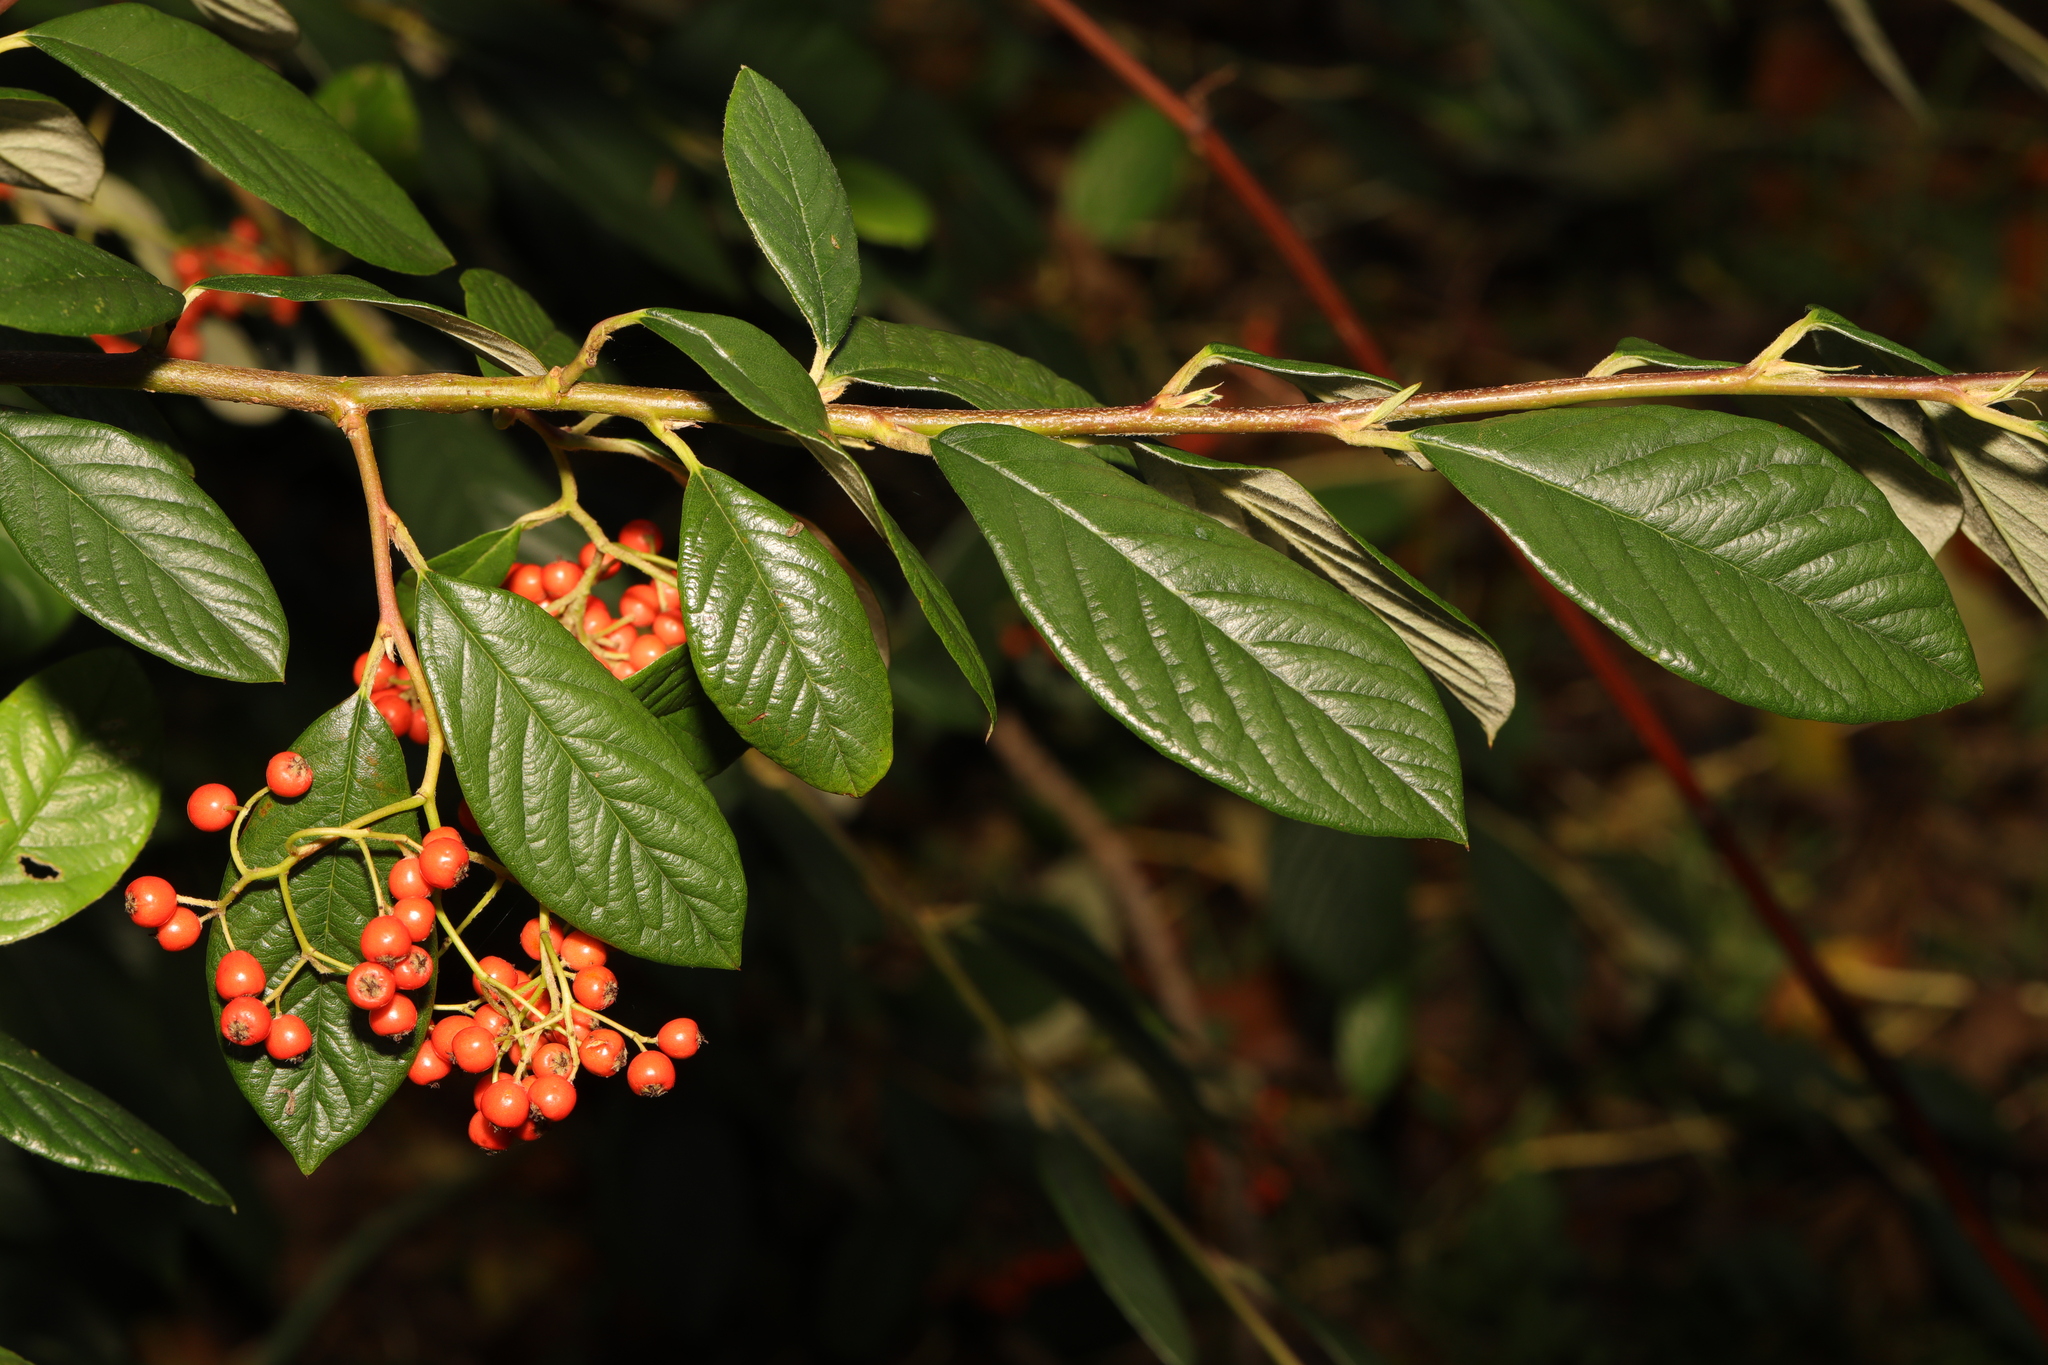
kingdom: Plantae
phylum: Tracheophyta
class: Magnoliopsida
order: Rosales
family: Rosaceae
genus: Cotoneaster
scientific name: Cotoneaster coriaceus
